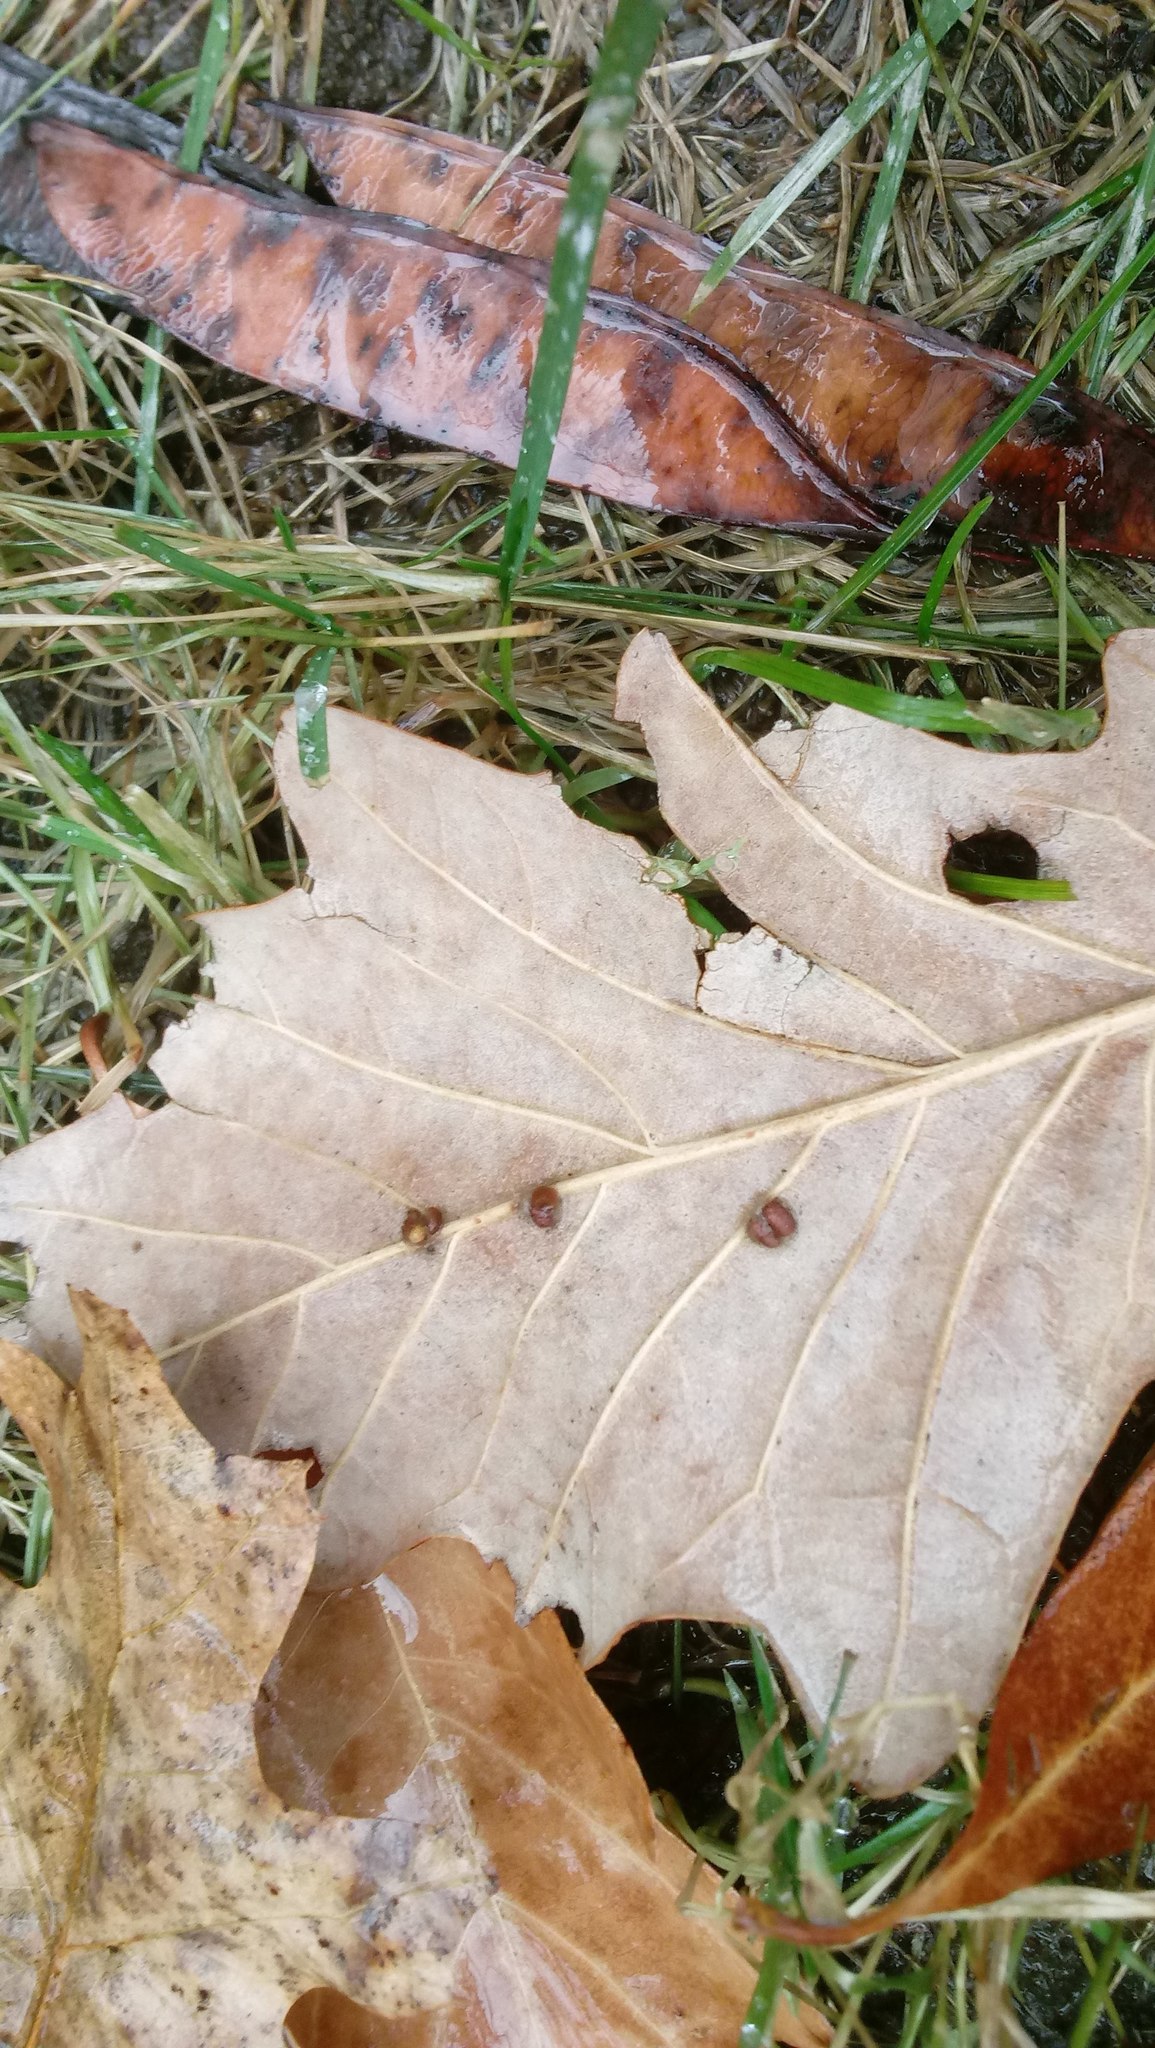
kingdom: Animalia
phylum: Arthropoda
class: Insecta
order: Hymenoptera
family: Cynipidae
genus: Andricus
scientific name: Andricus Druon ignotum
